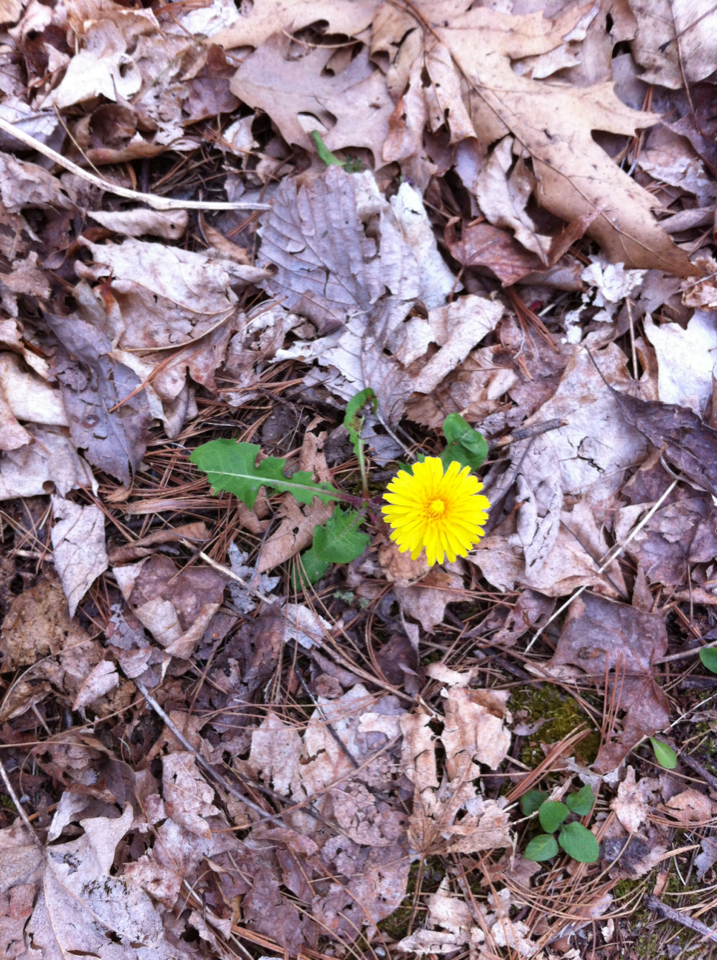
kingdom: Plantae
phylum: Tracheophyta
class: Magnoliopsida
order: Asterales
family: Asteraceae
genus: Taraxacum
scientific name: Taraxacum
